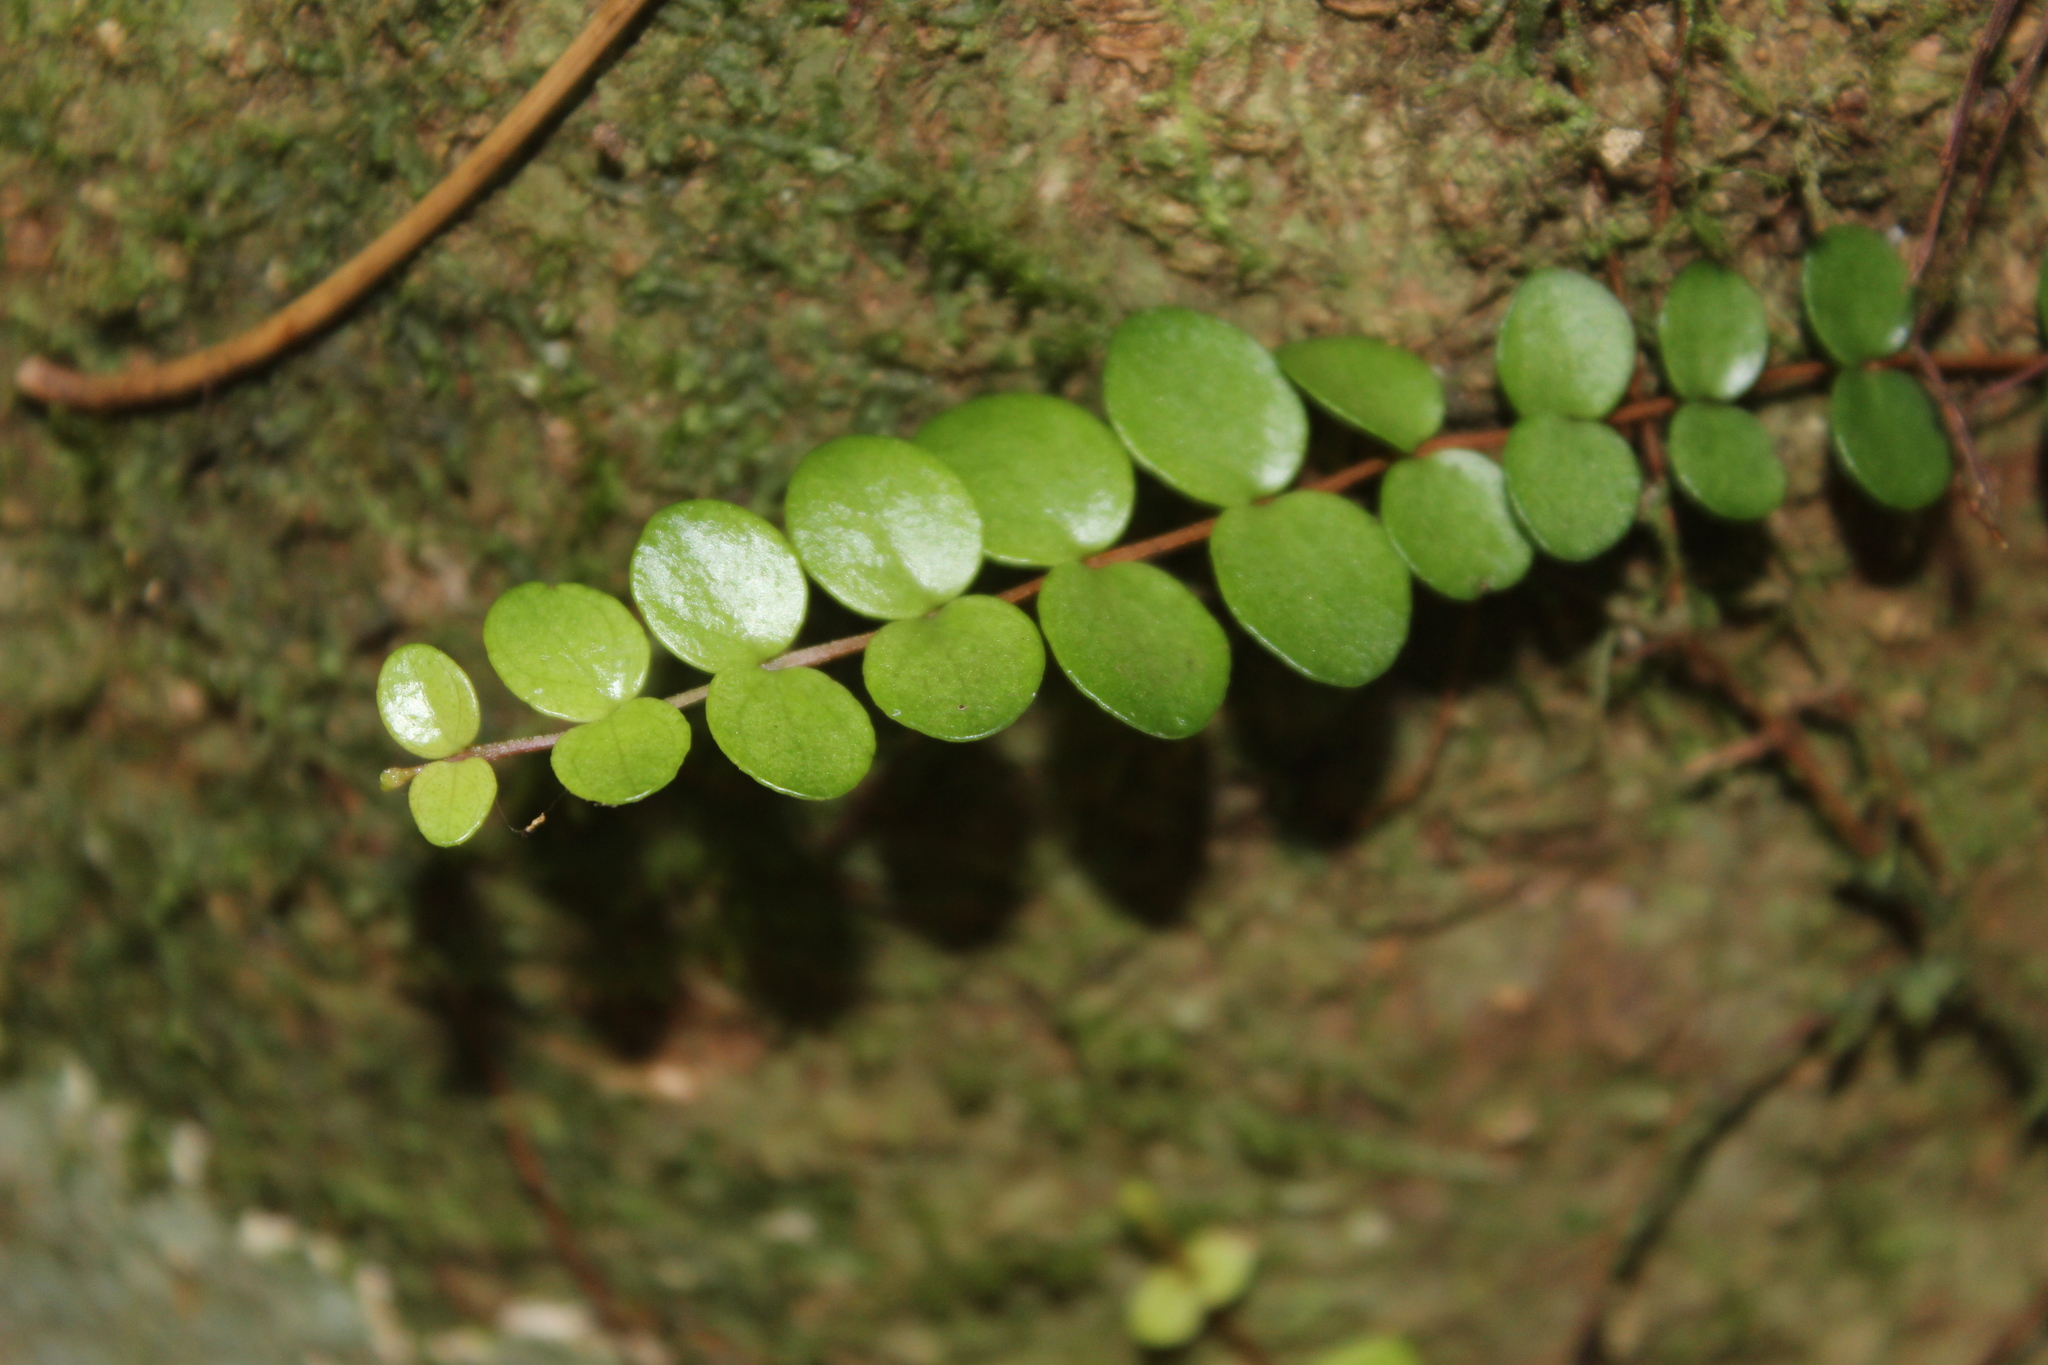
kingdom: Plantae
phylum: Tracheophyta
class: Magnoliopsida
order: Myrtales
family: Myrtaceae
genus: Metrosideros
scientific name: Metrosideros perforata
